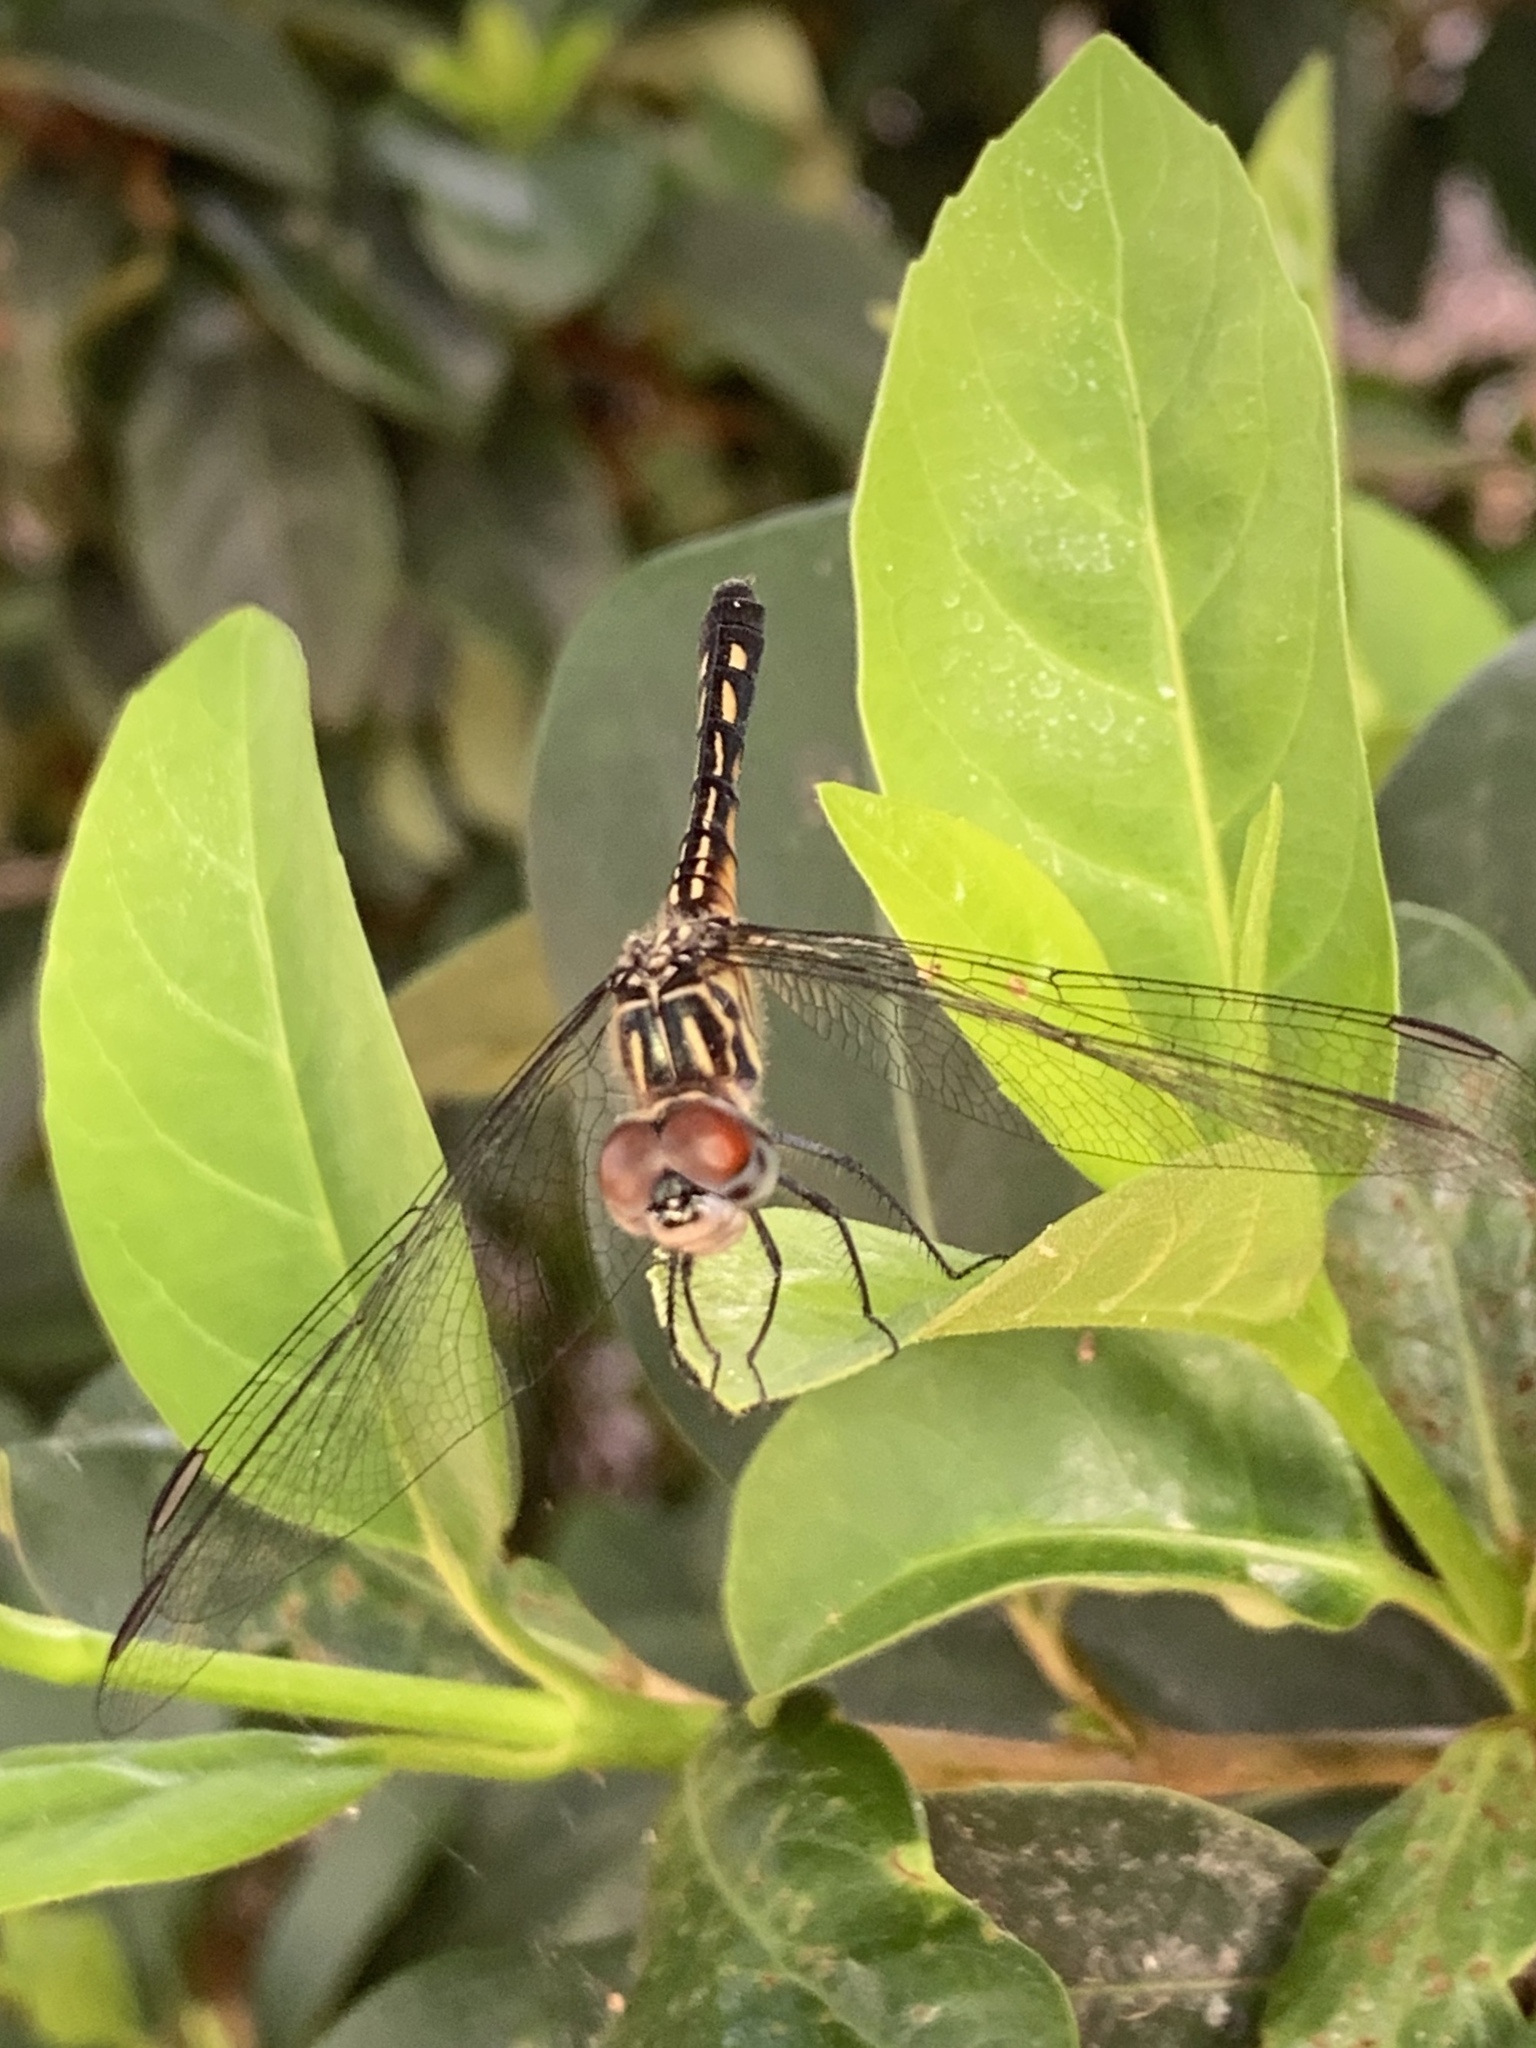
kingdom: Animalia
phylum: Arthropoda
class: Insecta
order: Odonata
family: Libellulidae
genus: Pachydiplax
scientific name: Pachydiplax longipennis
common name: Blue dasher
